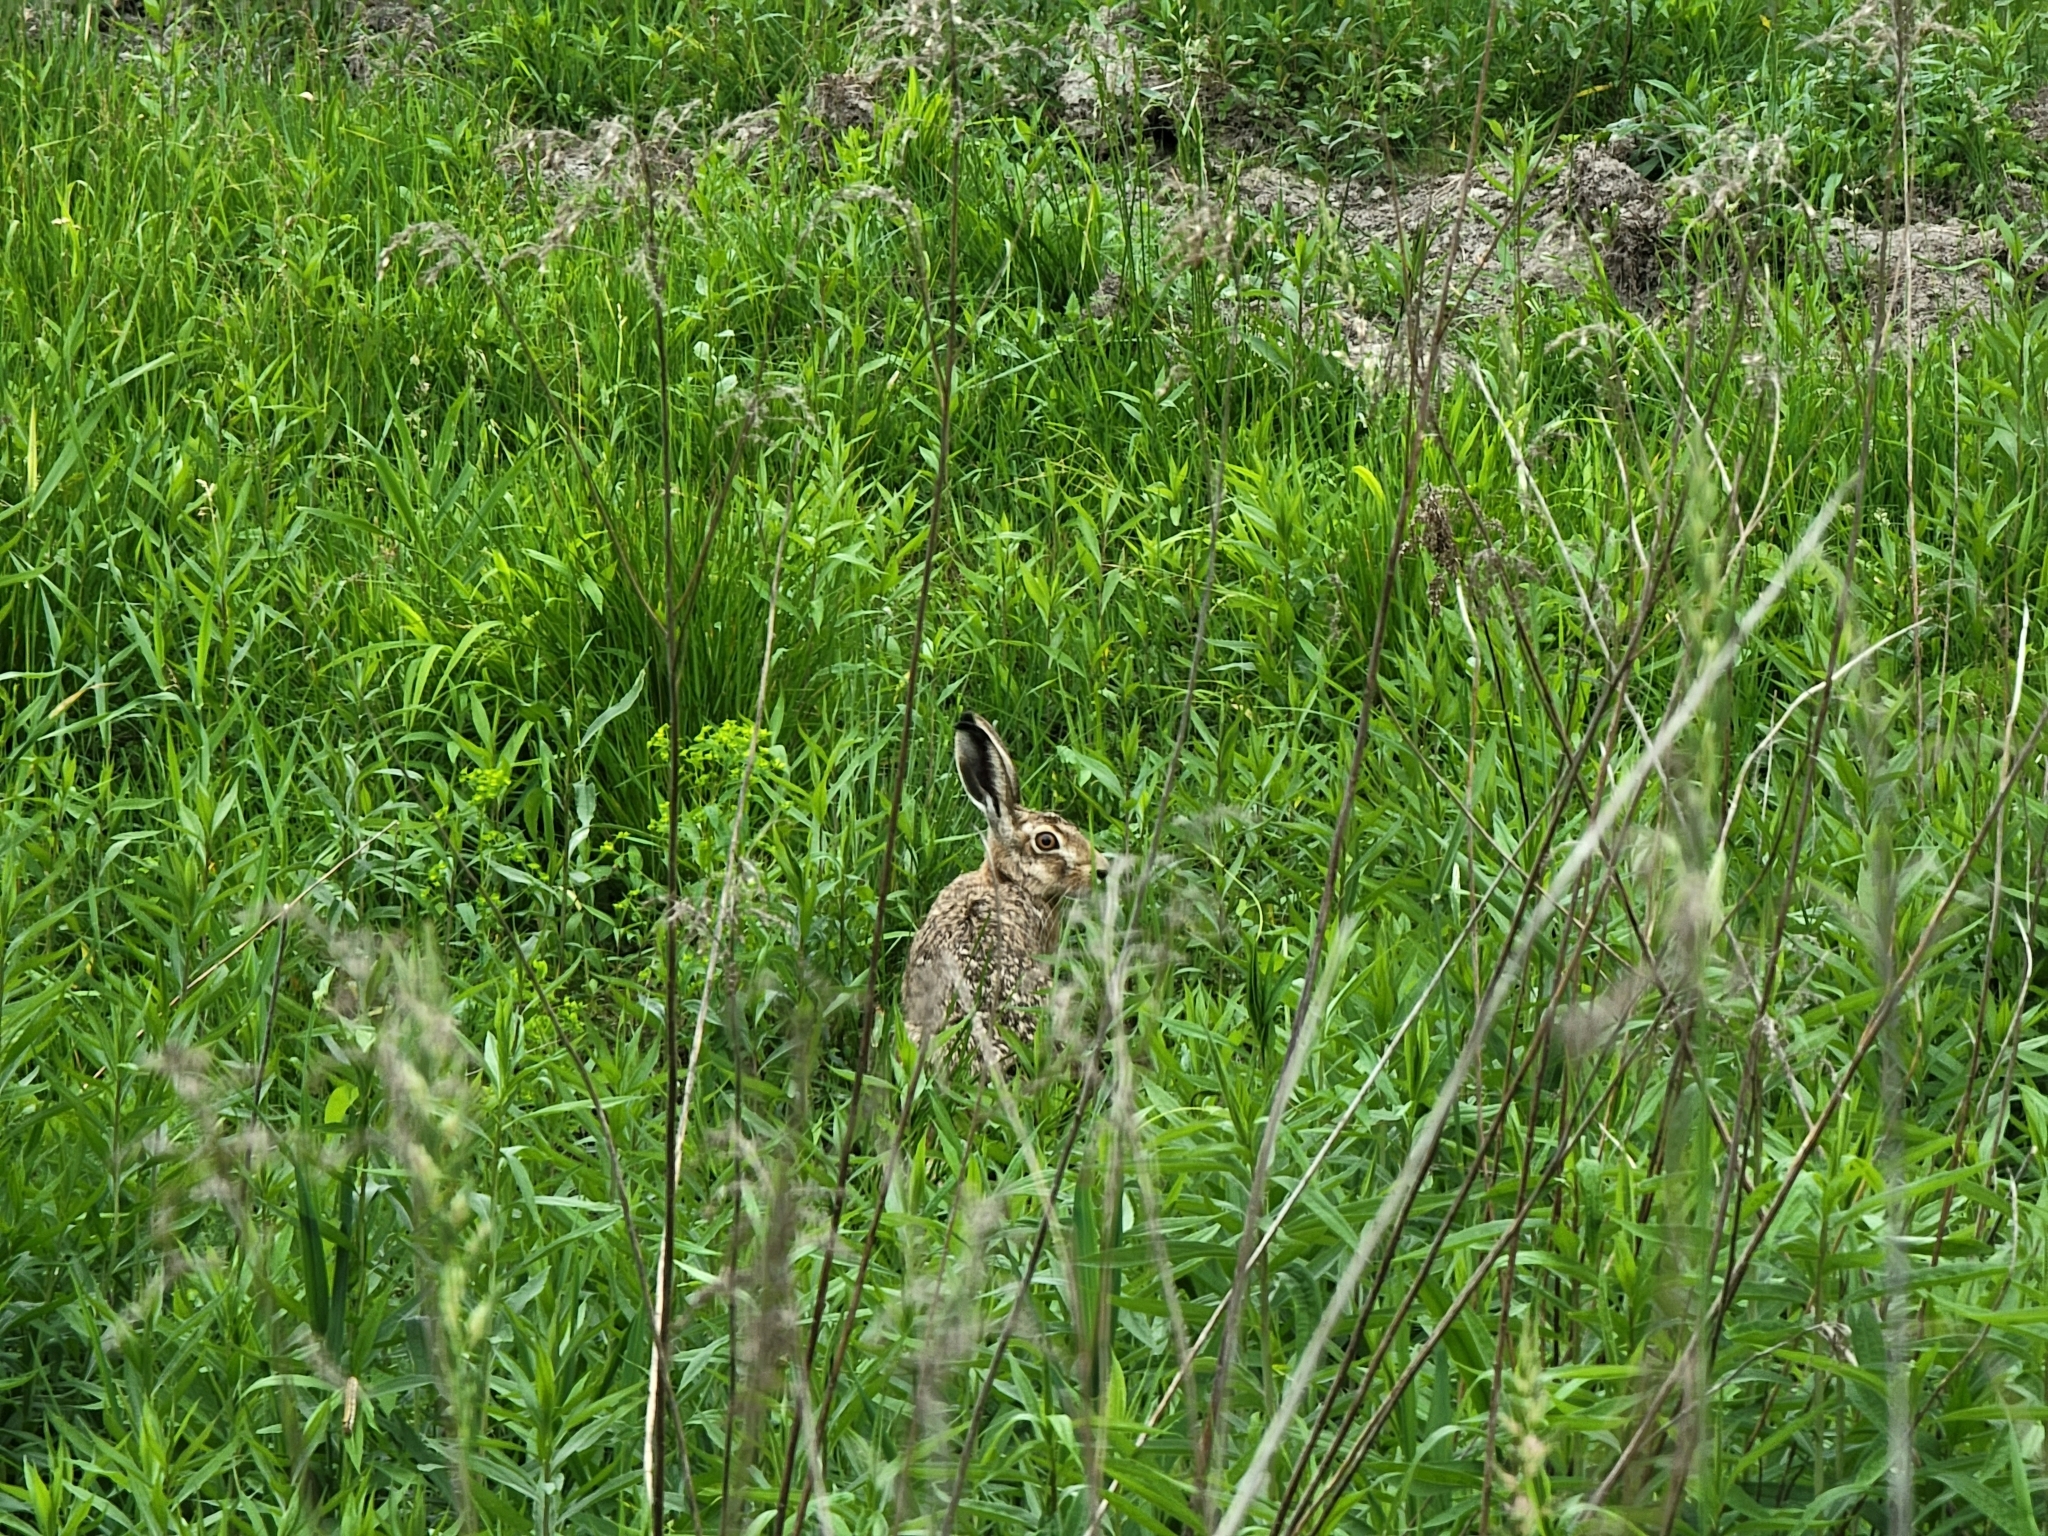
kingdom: Animalia
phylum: Chordata
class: Mammalia
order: Lagomorpha
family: Leporidae
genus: Lepus
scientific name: Lepus europaeus
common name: European hare
